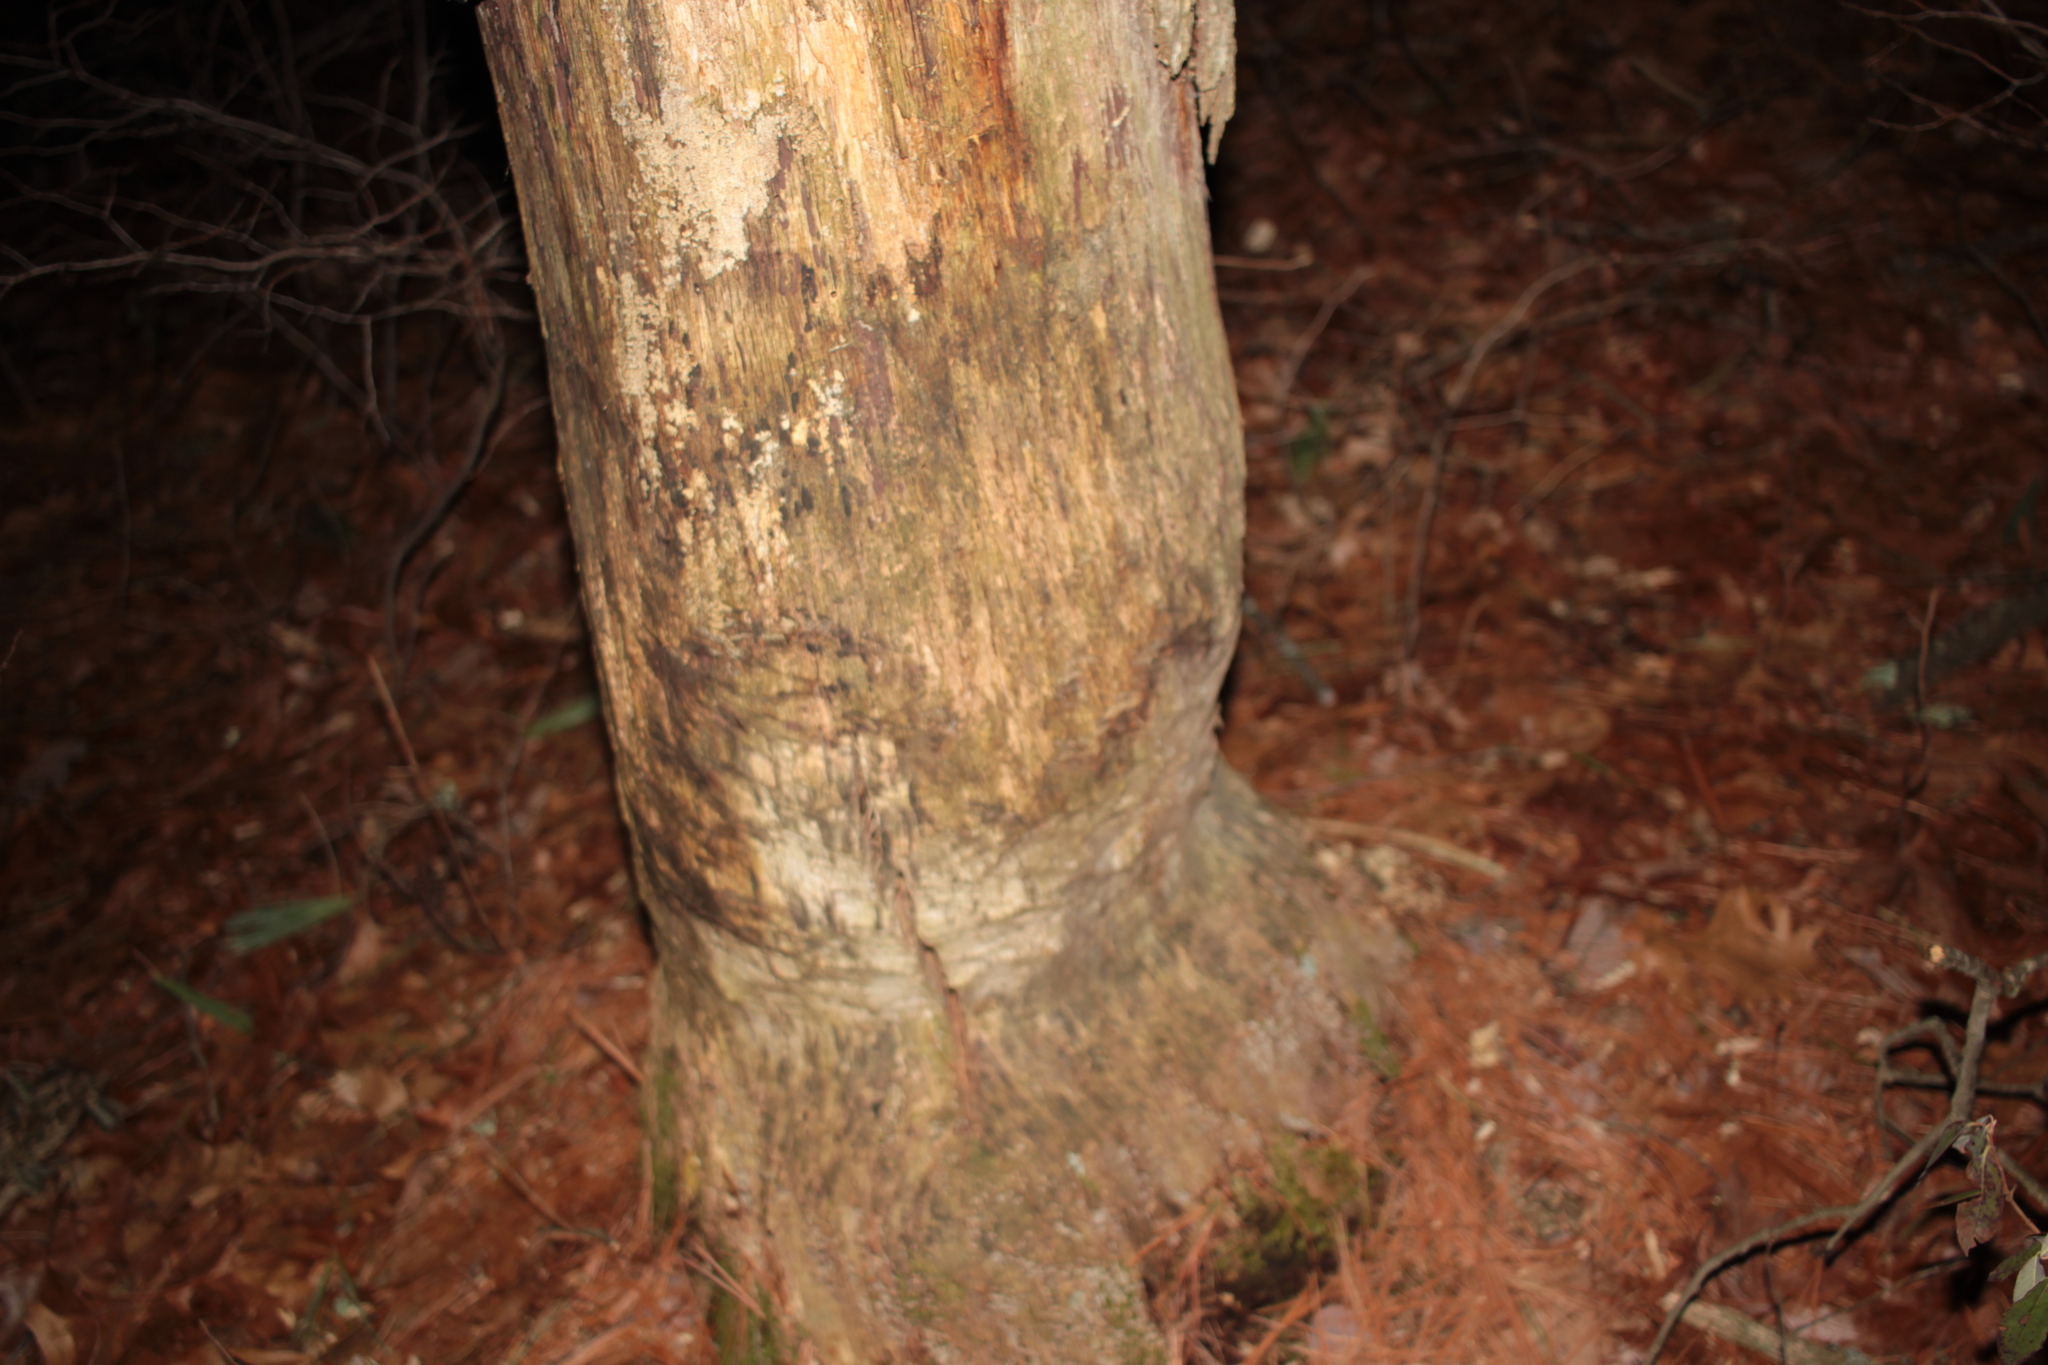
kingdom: Animalia
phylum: Chordata
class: Mammalia
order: Rodentia
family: Castoridae
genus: Castor
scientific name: Castor canadensis
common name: American beaver
